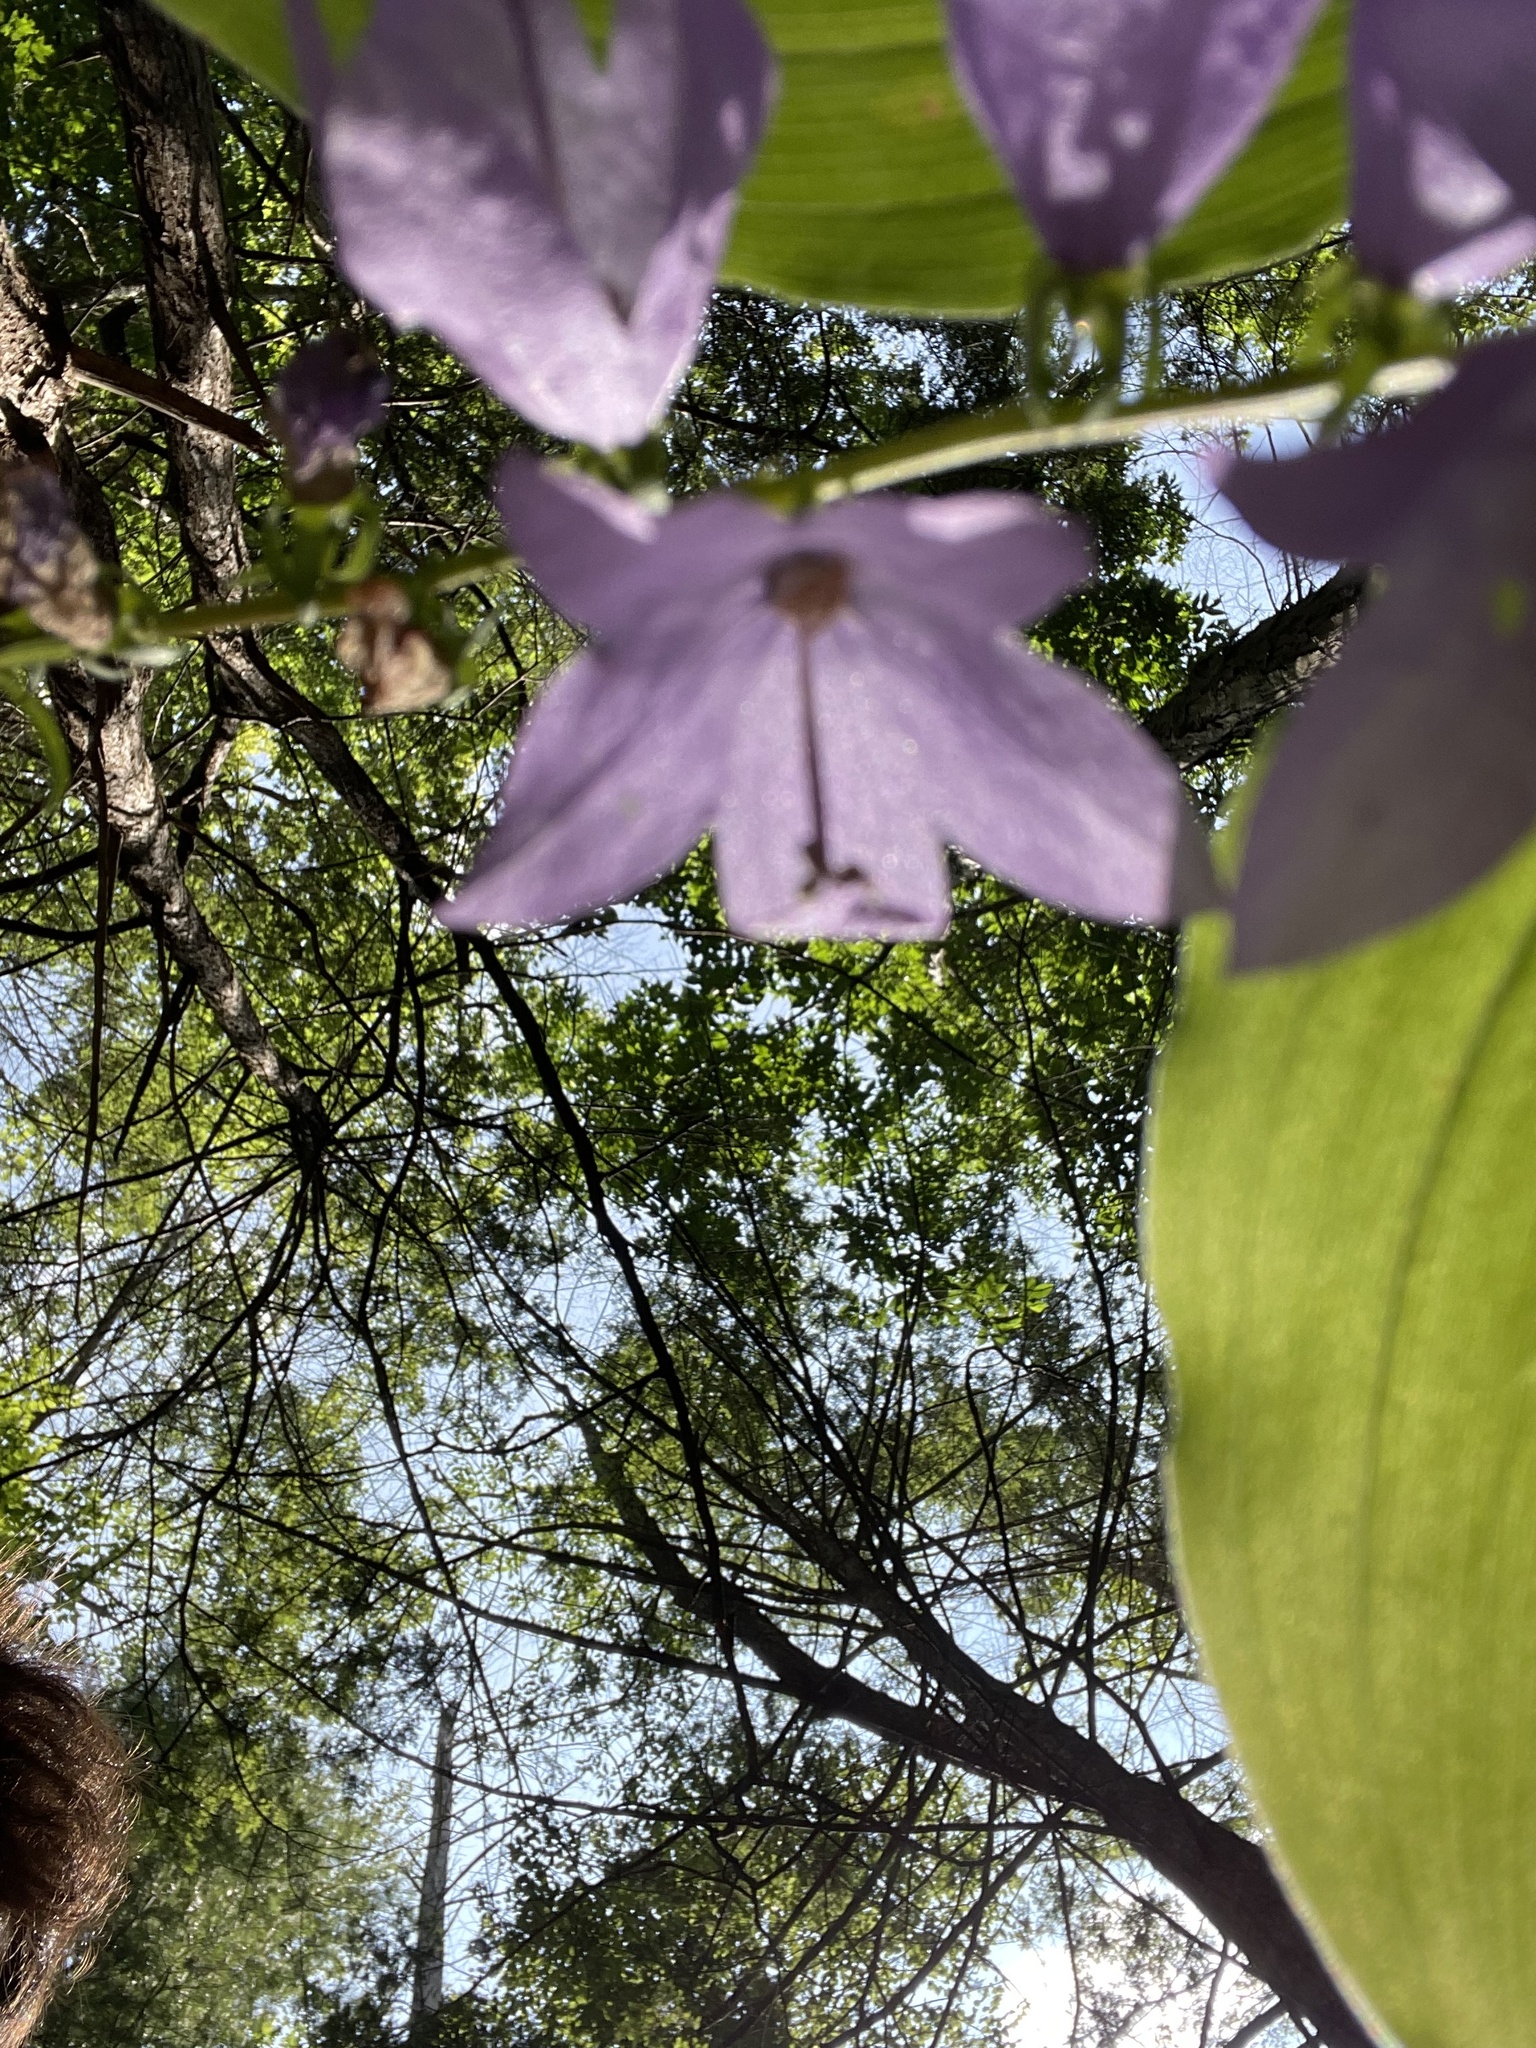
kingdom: Plantae
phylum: Tracheophyta
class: Magnoliopsida
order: Asterales
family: Campanulaceae
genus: Campanula
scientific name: Campanula rapunculoides
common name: Creeping bellflower
